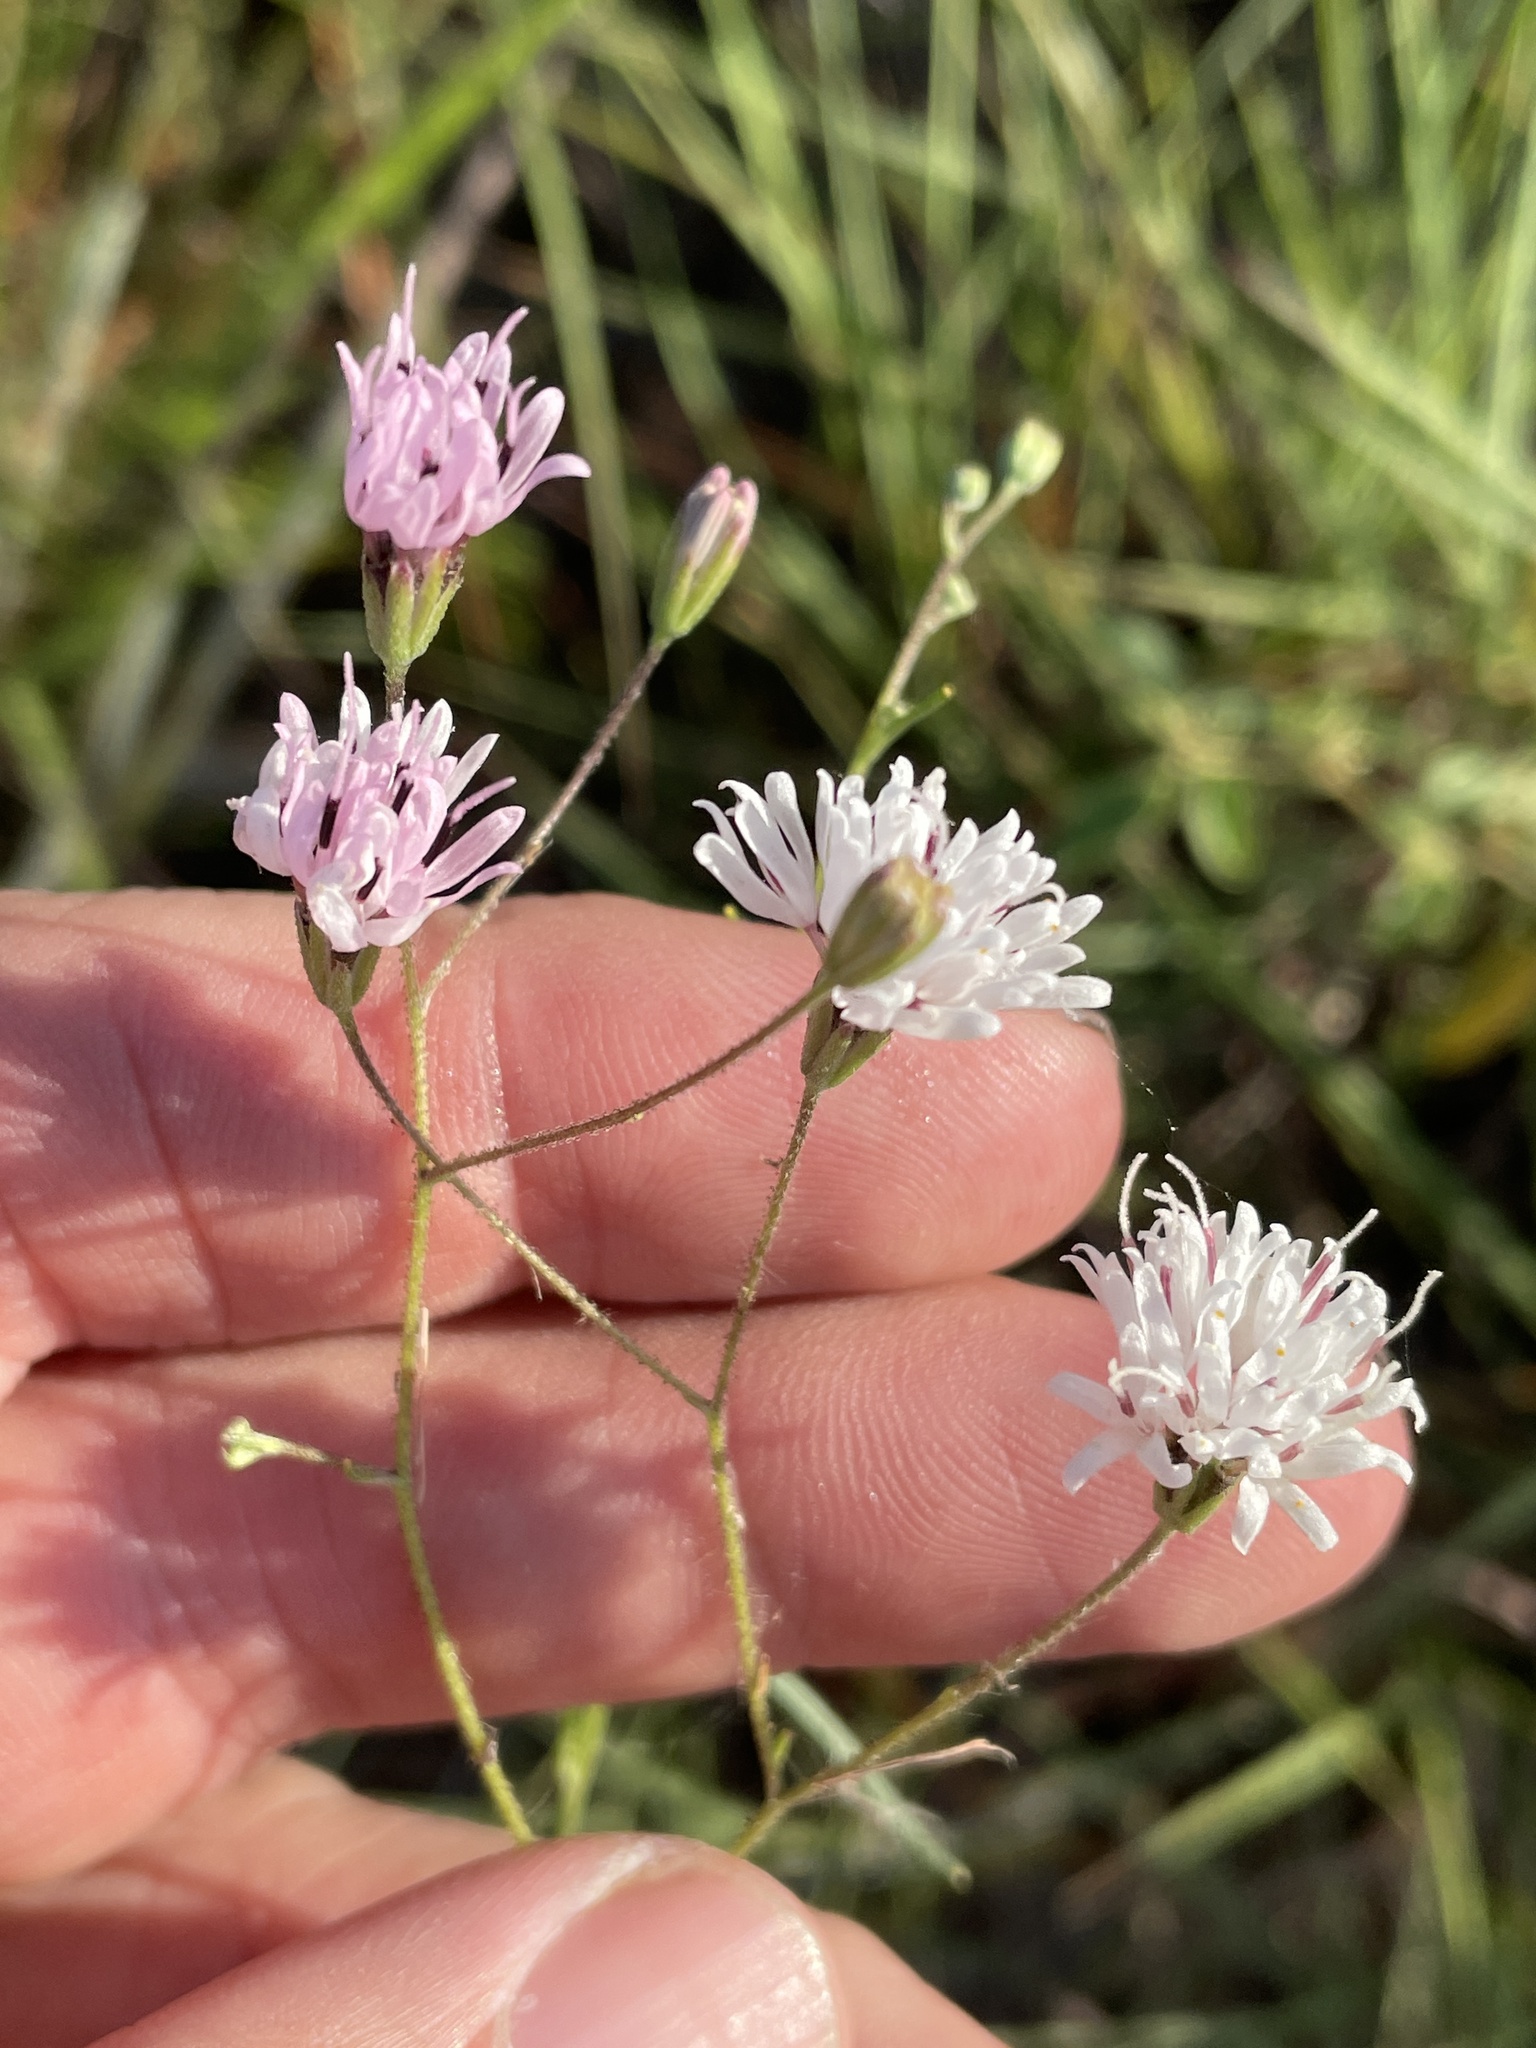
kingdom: Plantae
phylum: Tracheophyta
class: Magnoliopsida
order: Asterales
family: Asteraceae
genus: Palafoxia
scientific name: Palafoxia callosa
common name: Small palafox
